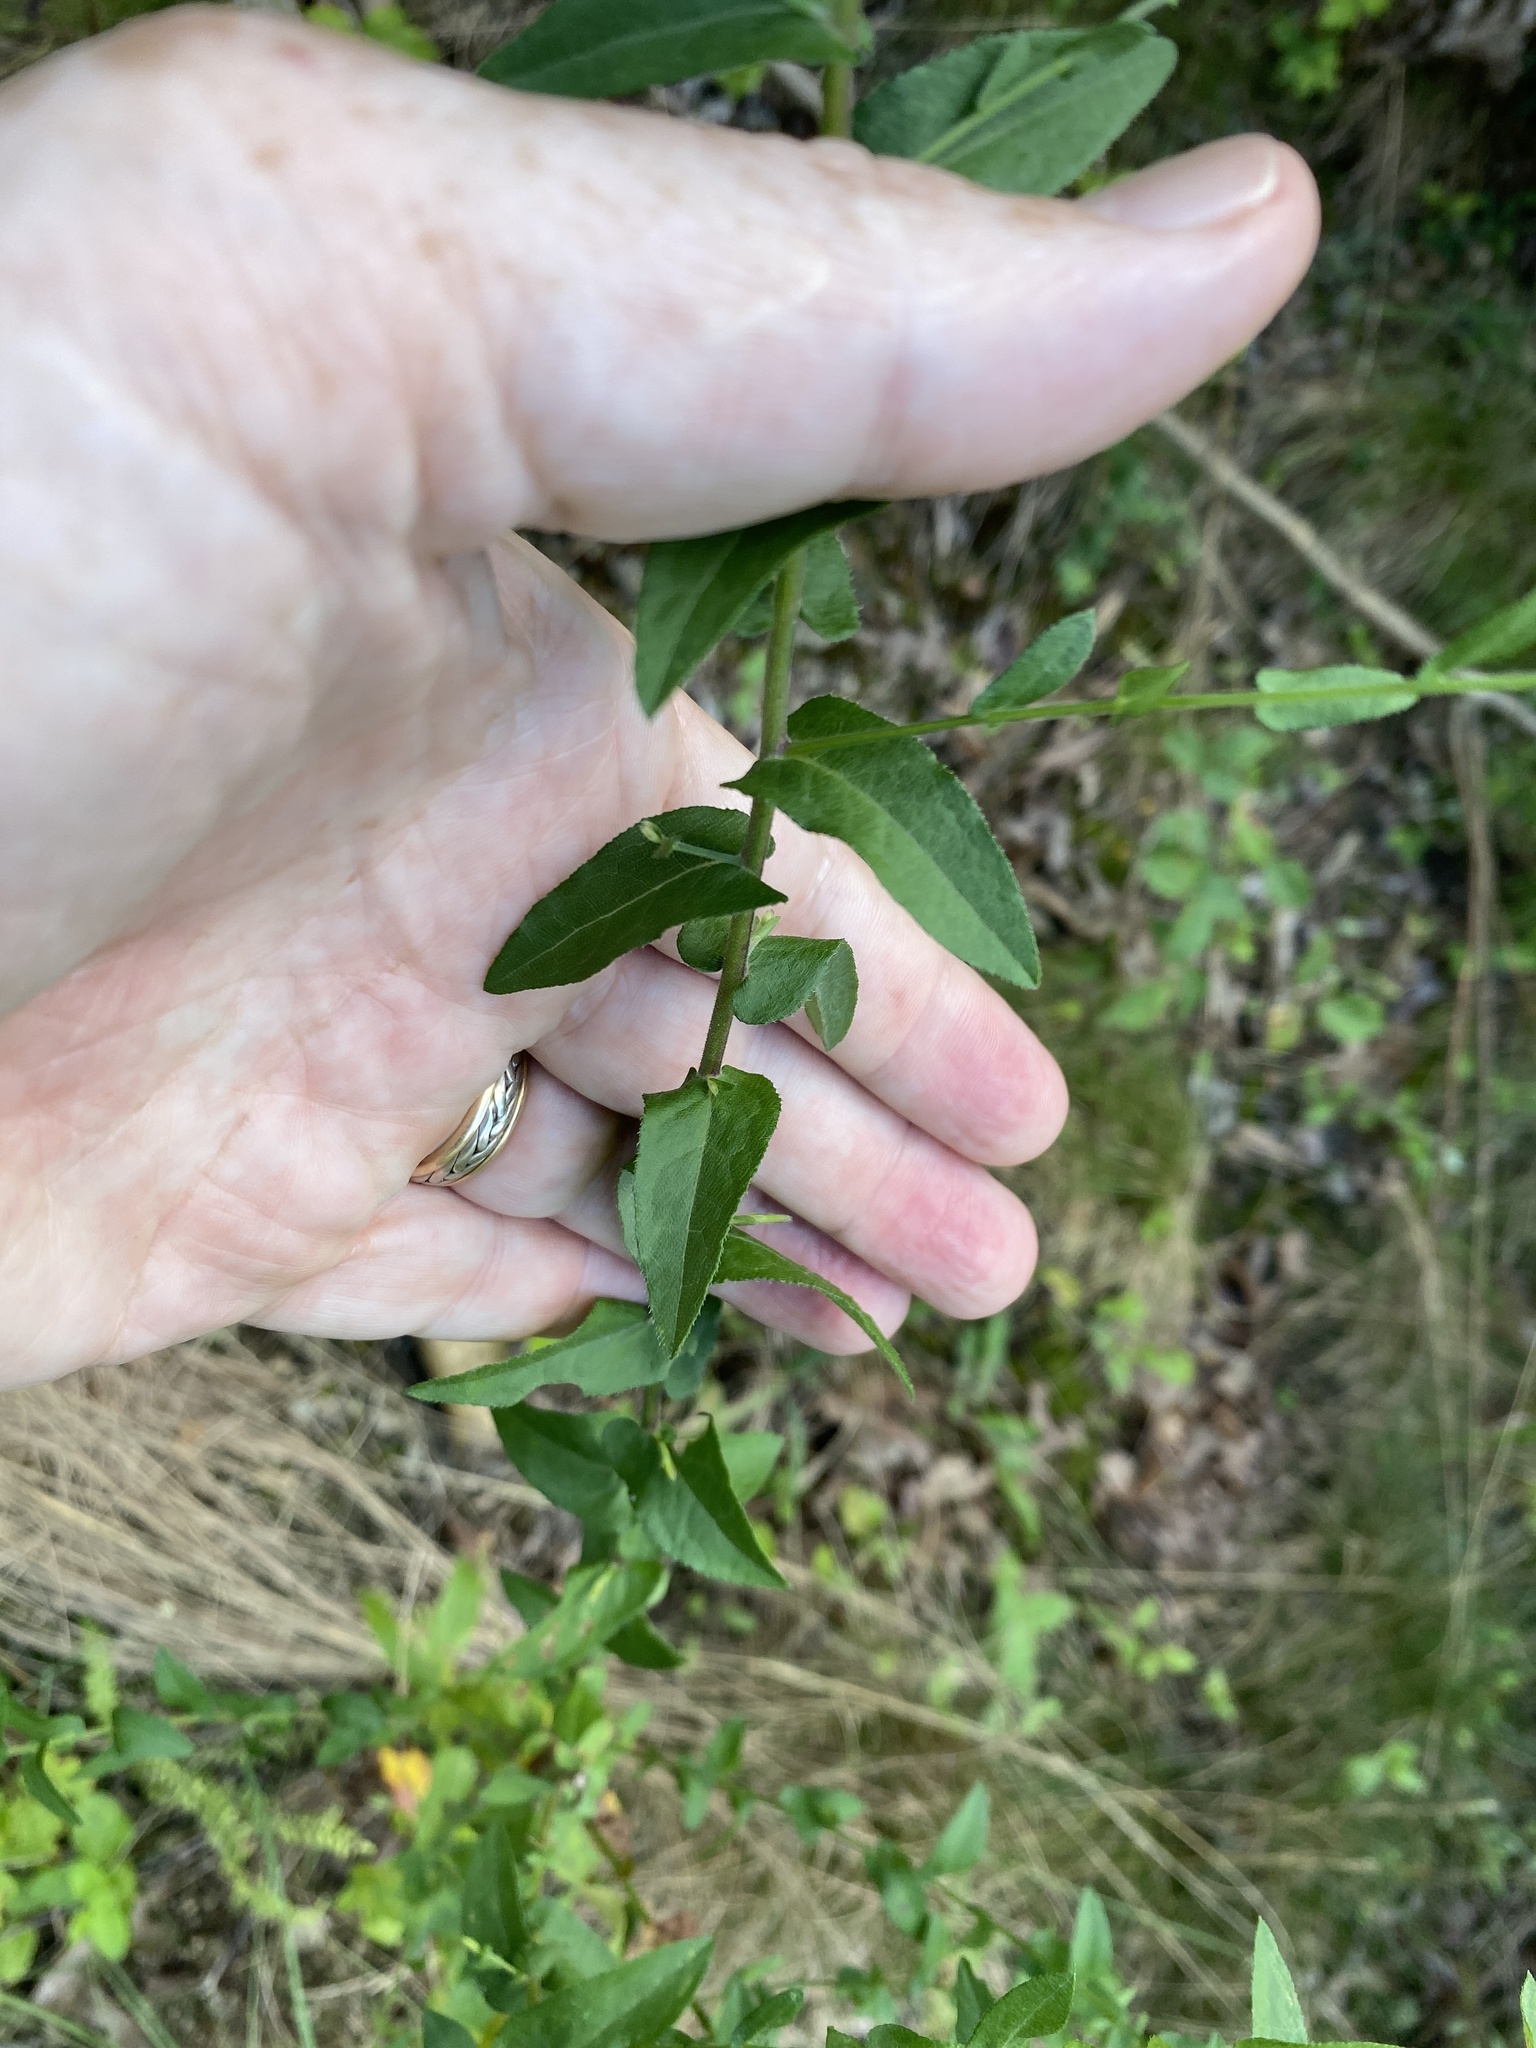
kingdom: Plantae
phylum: Tracheophyta
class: Magnoliopsida
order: Asterales
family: Asteraceae
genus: Symphyotrichum
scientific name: Symphyotrichum patens
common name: Late purple aster
